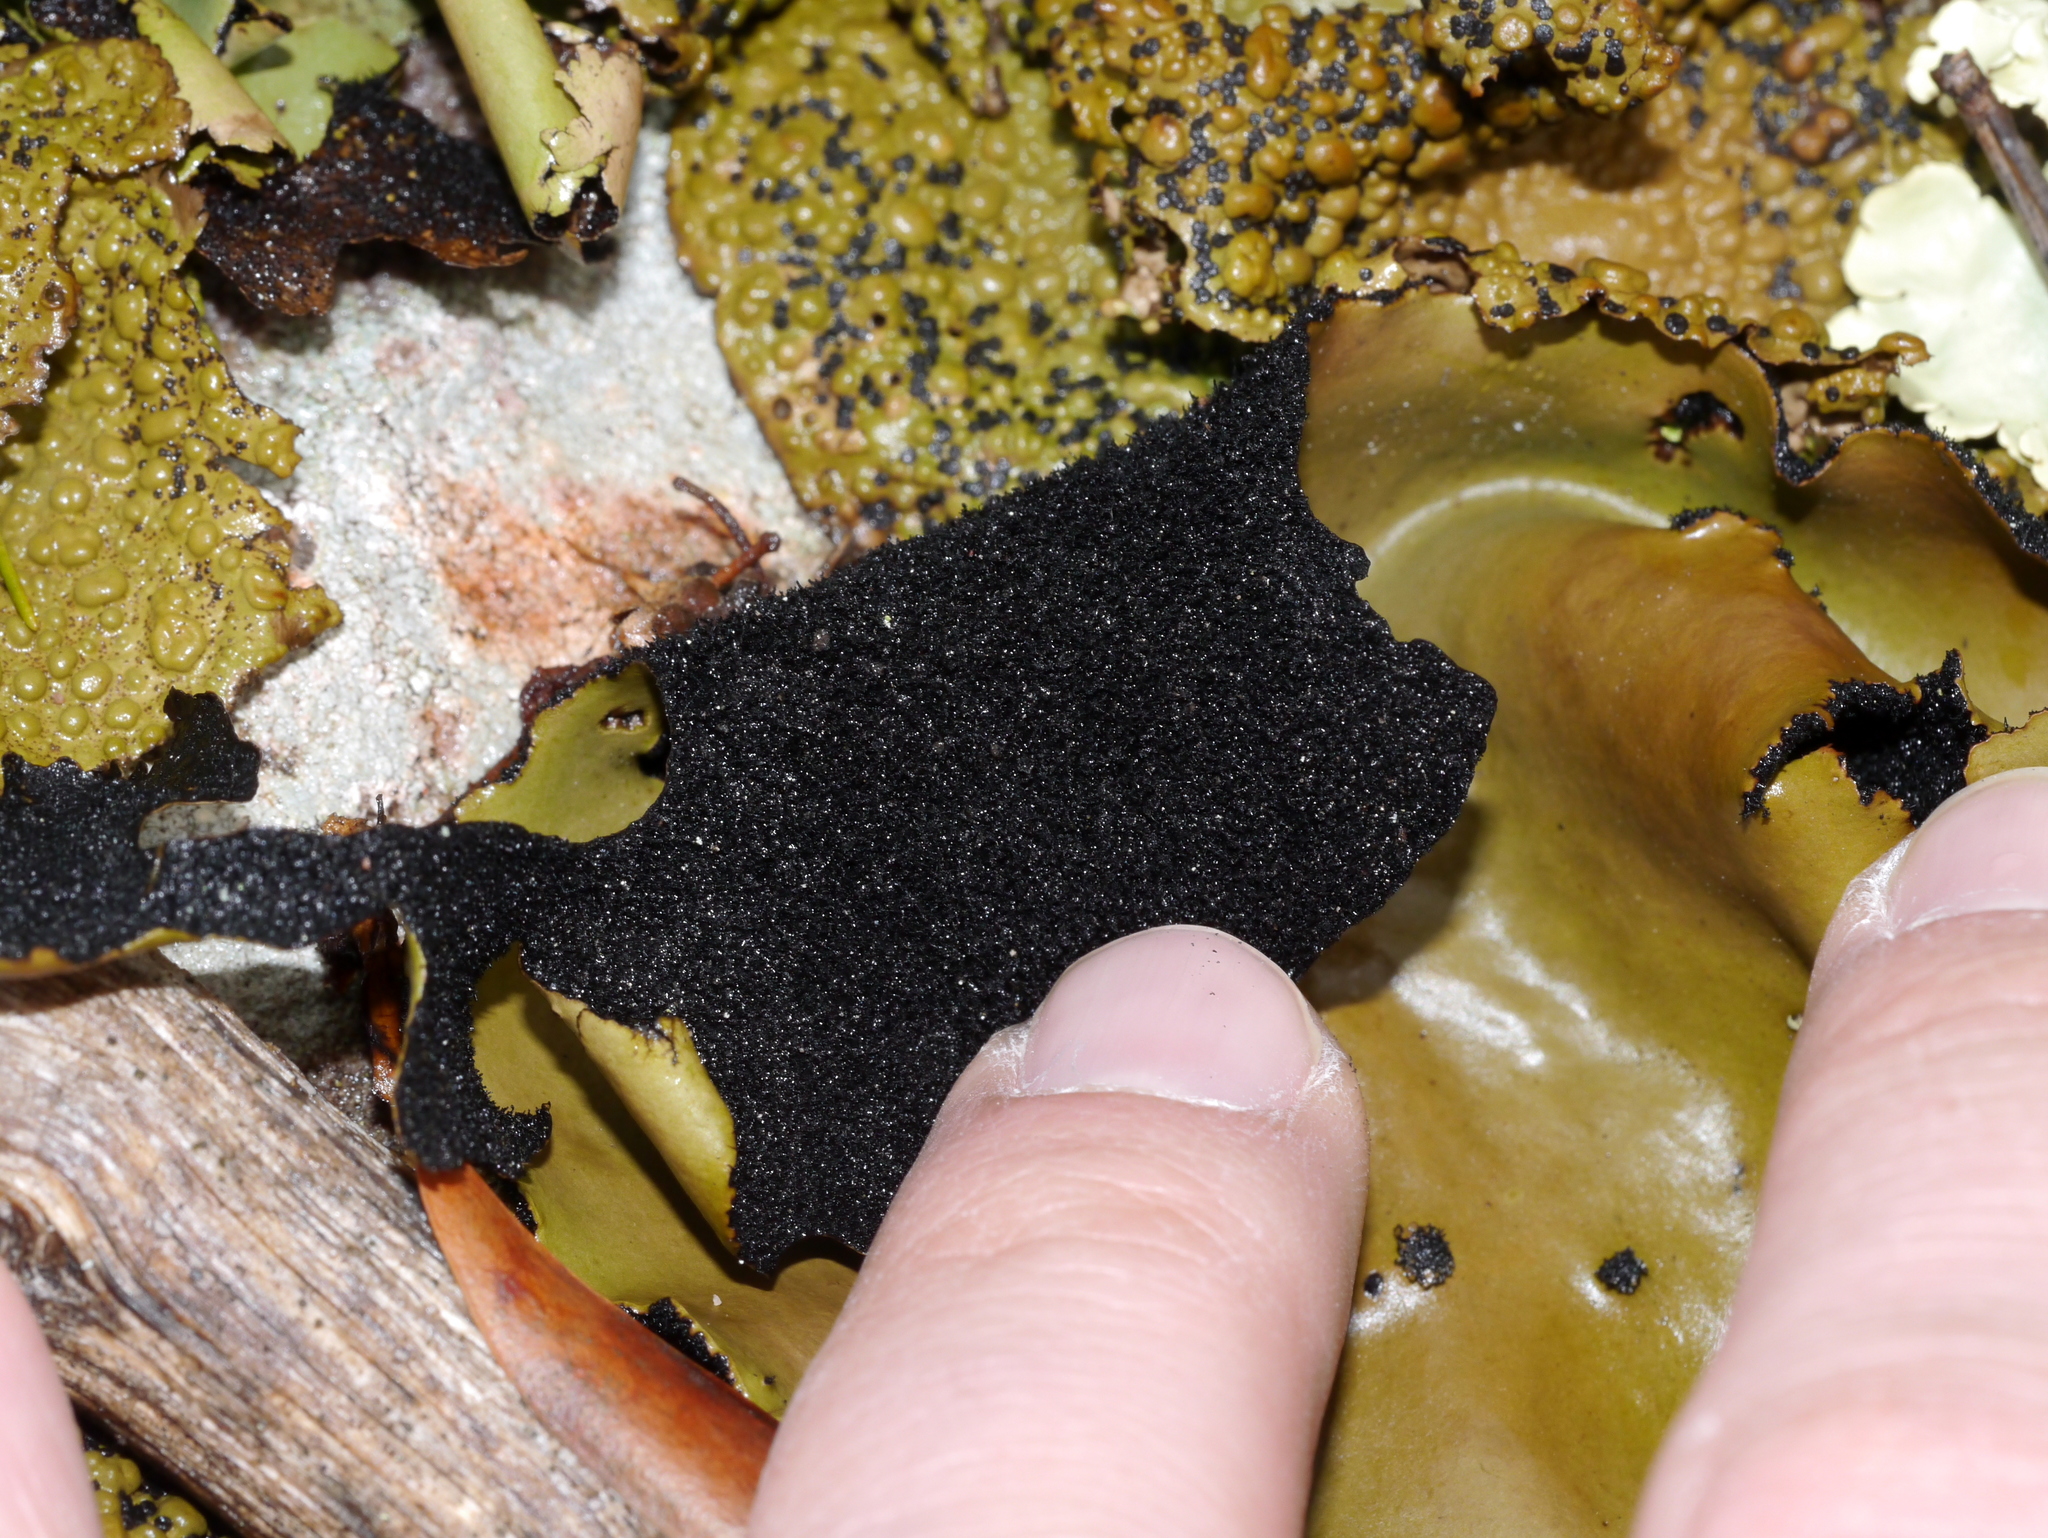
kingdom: Fungi
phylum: Ascomycota
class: Lecanoromycetes
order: Umbilicariales
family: Umbilicariaceae
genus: Umbilicaria
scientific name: Umbilicaria mammulata
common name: Smooth rock tripe
